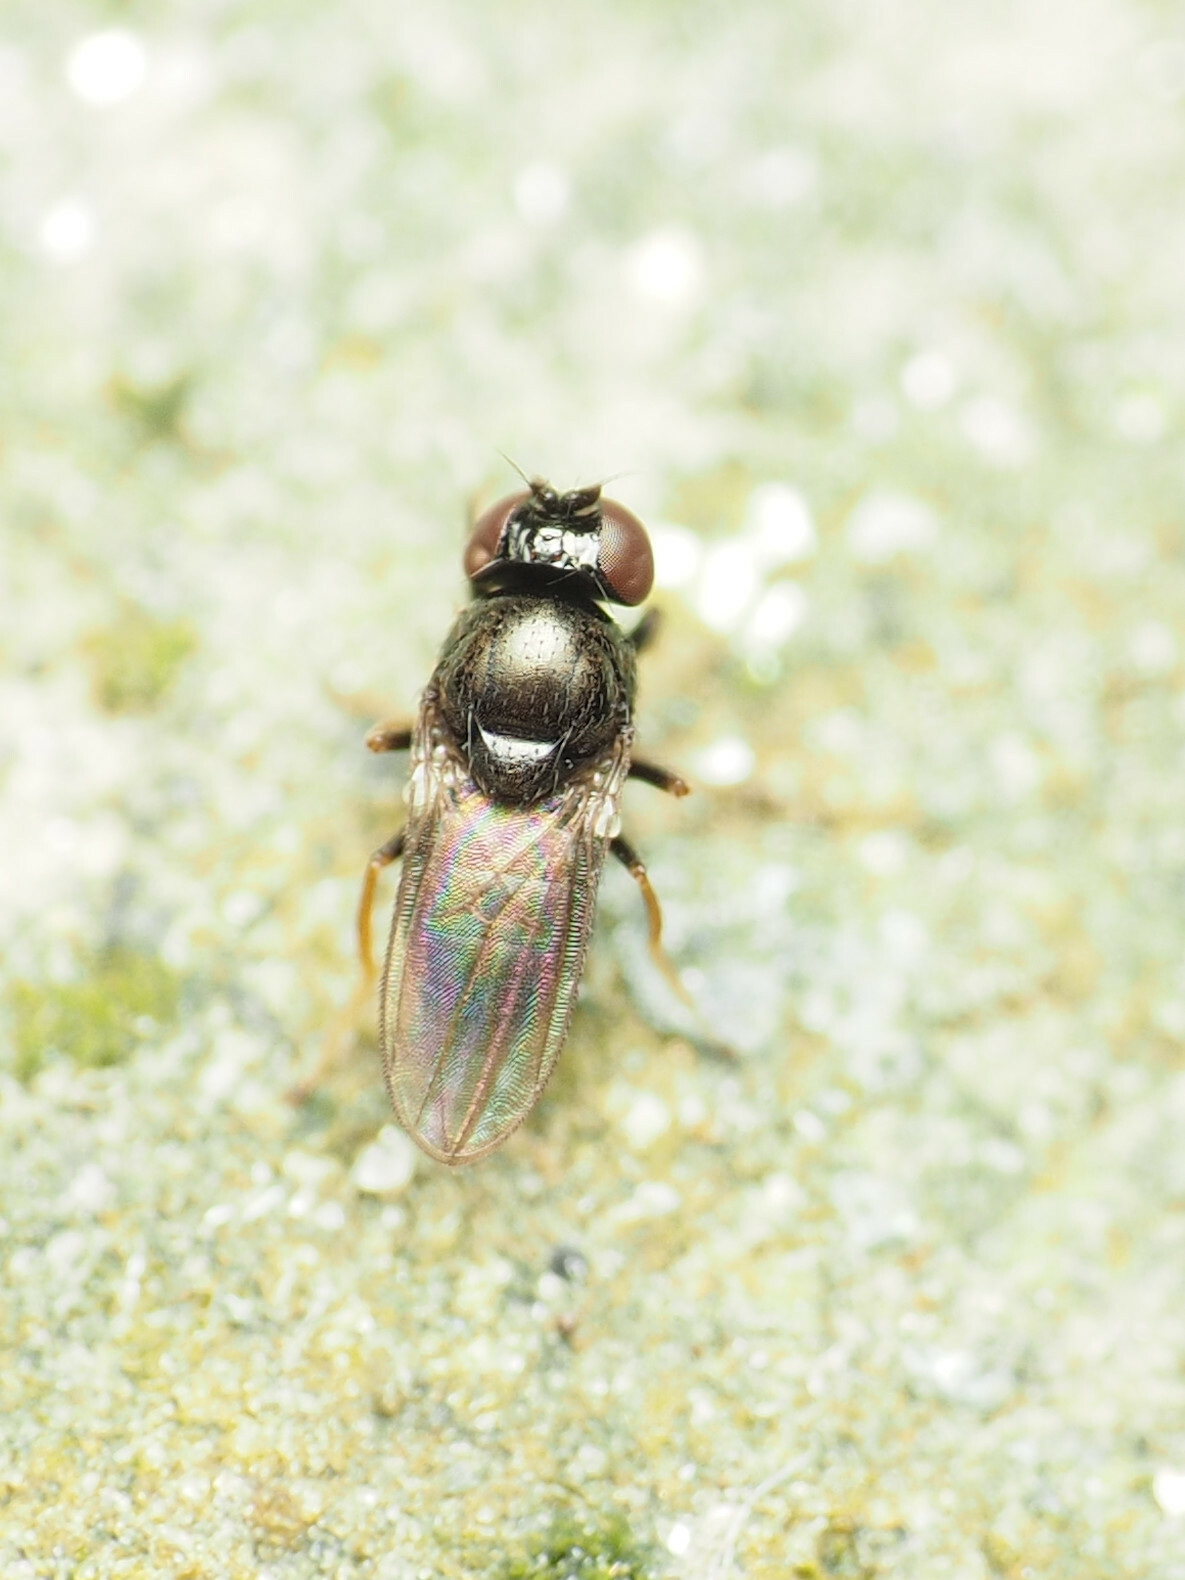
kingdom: Animalia
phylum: Arthropoda
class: Insecta
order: Diptera
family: Ephydridae
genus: Athyroglossa
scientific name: Athyroglossa glaphyropus
